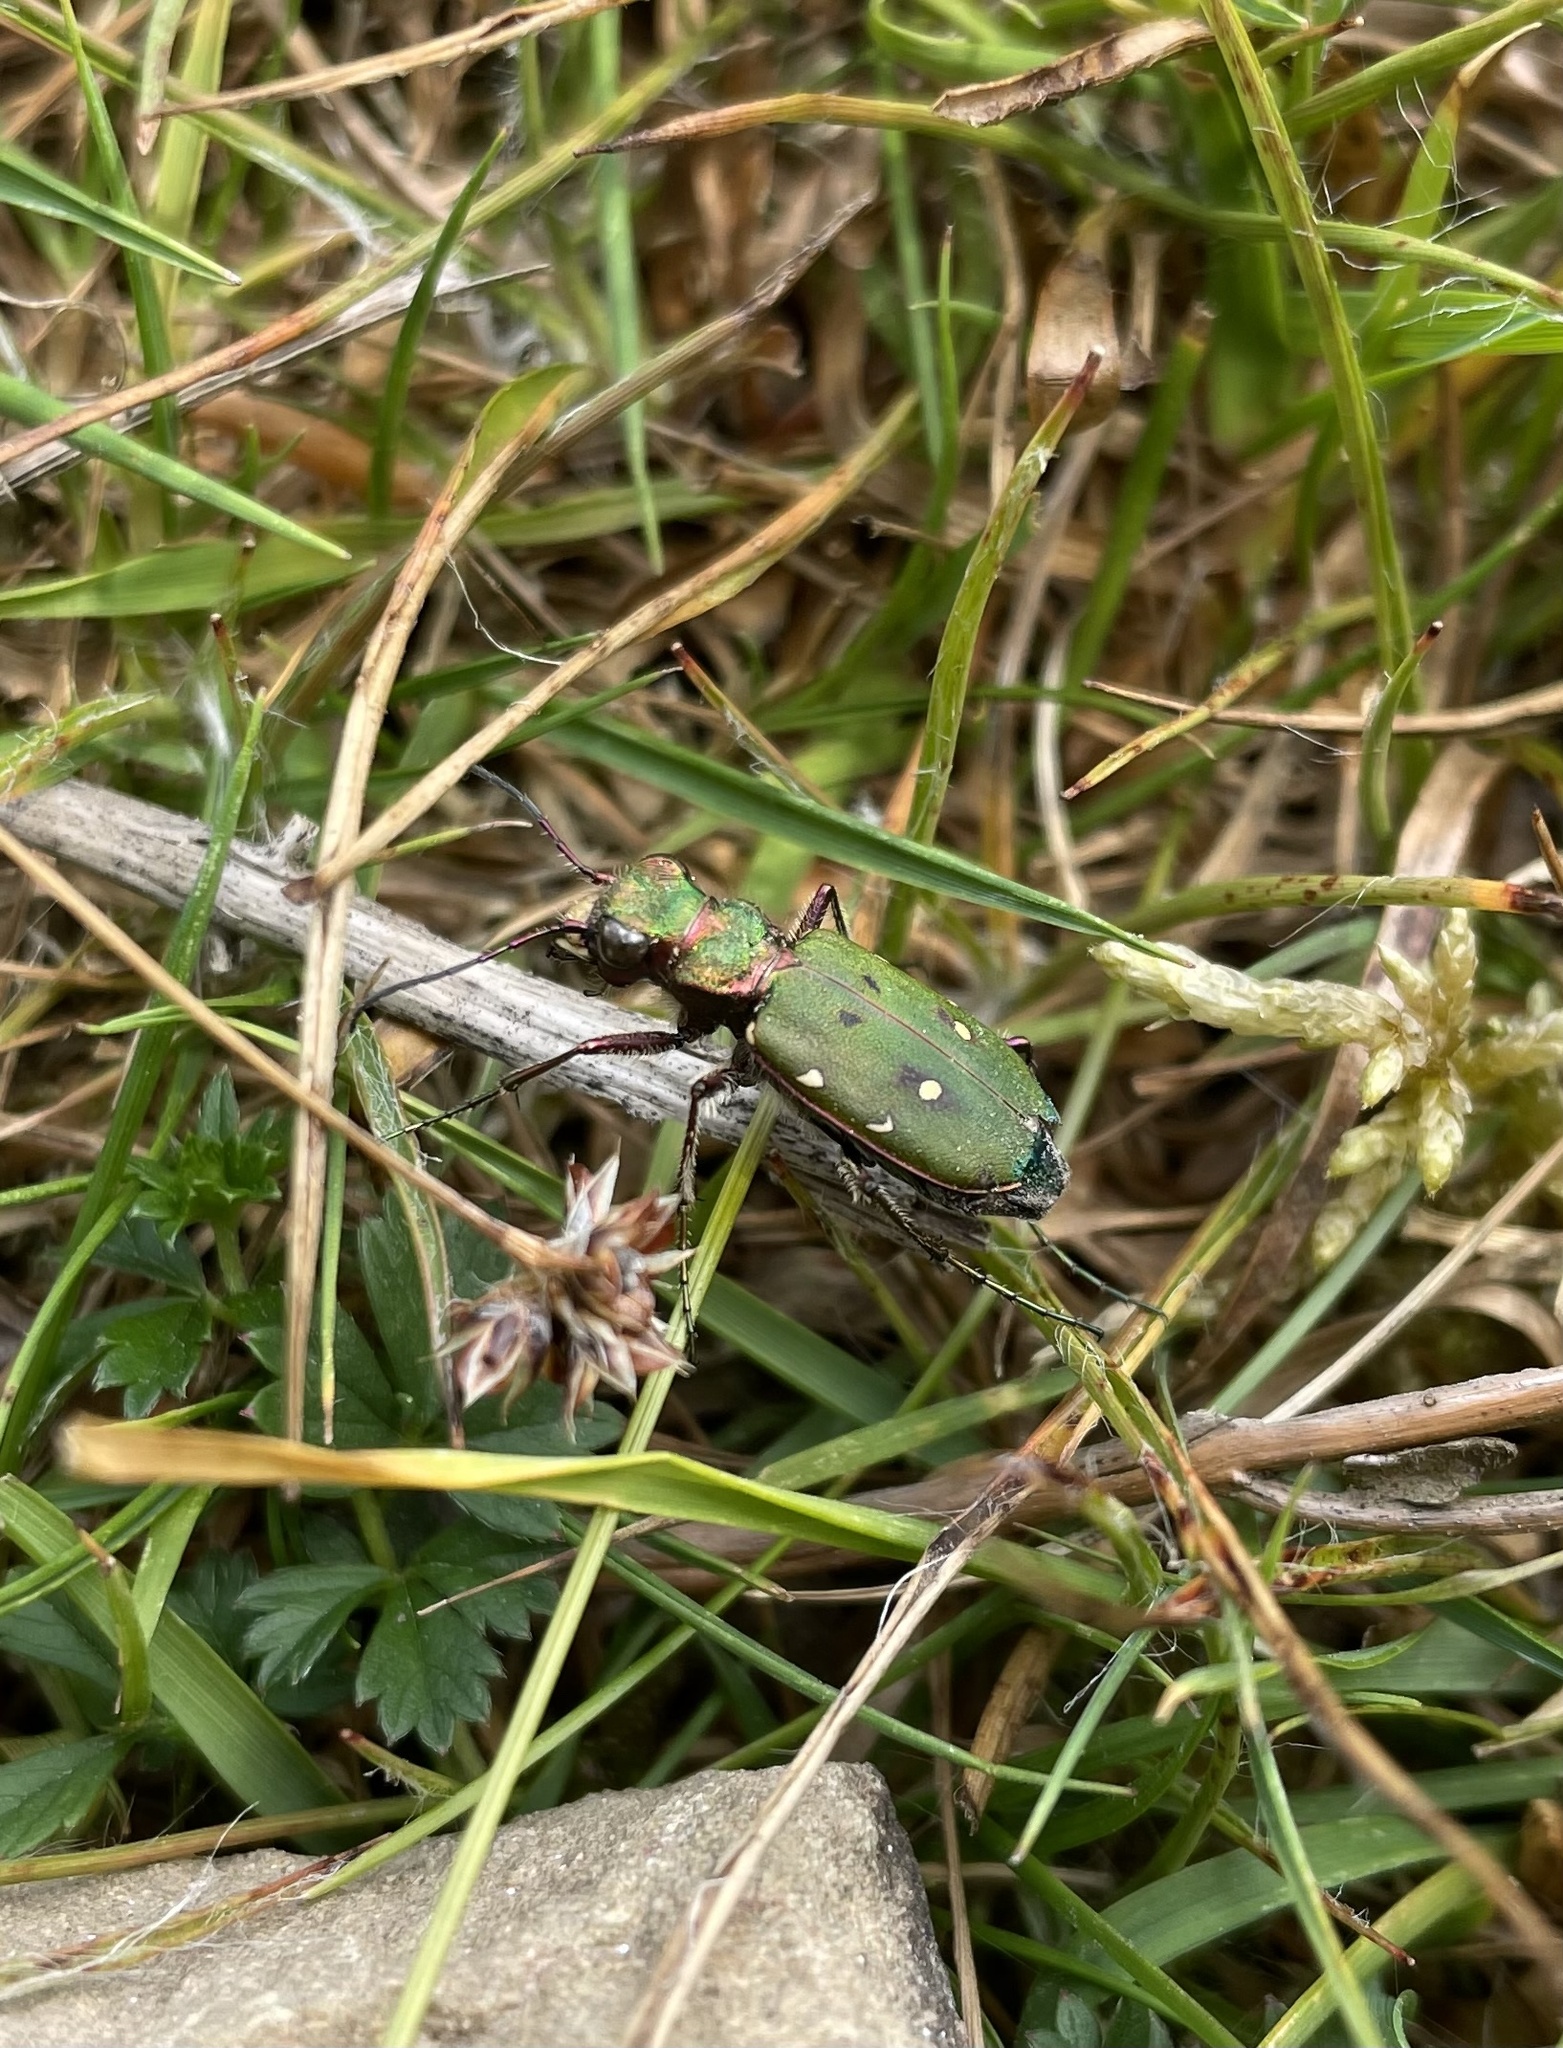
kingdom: Animalia
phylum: Arthropoda
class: Insecta
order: Coleoptera
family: Carabidae
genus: Cicindela
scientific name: Cicindela campestris
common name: Common tiger beetle
